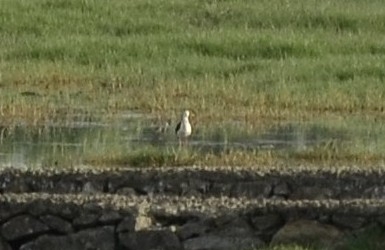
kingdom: Animalia
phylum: Chordata
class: Aves
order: Charadriiformes
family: Recurvirostridae
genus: Himantopus
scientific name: Himantopus himantopus
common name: Black-winged stilt
